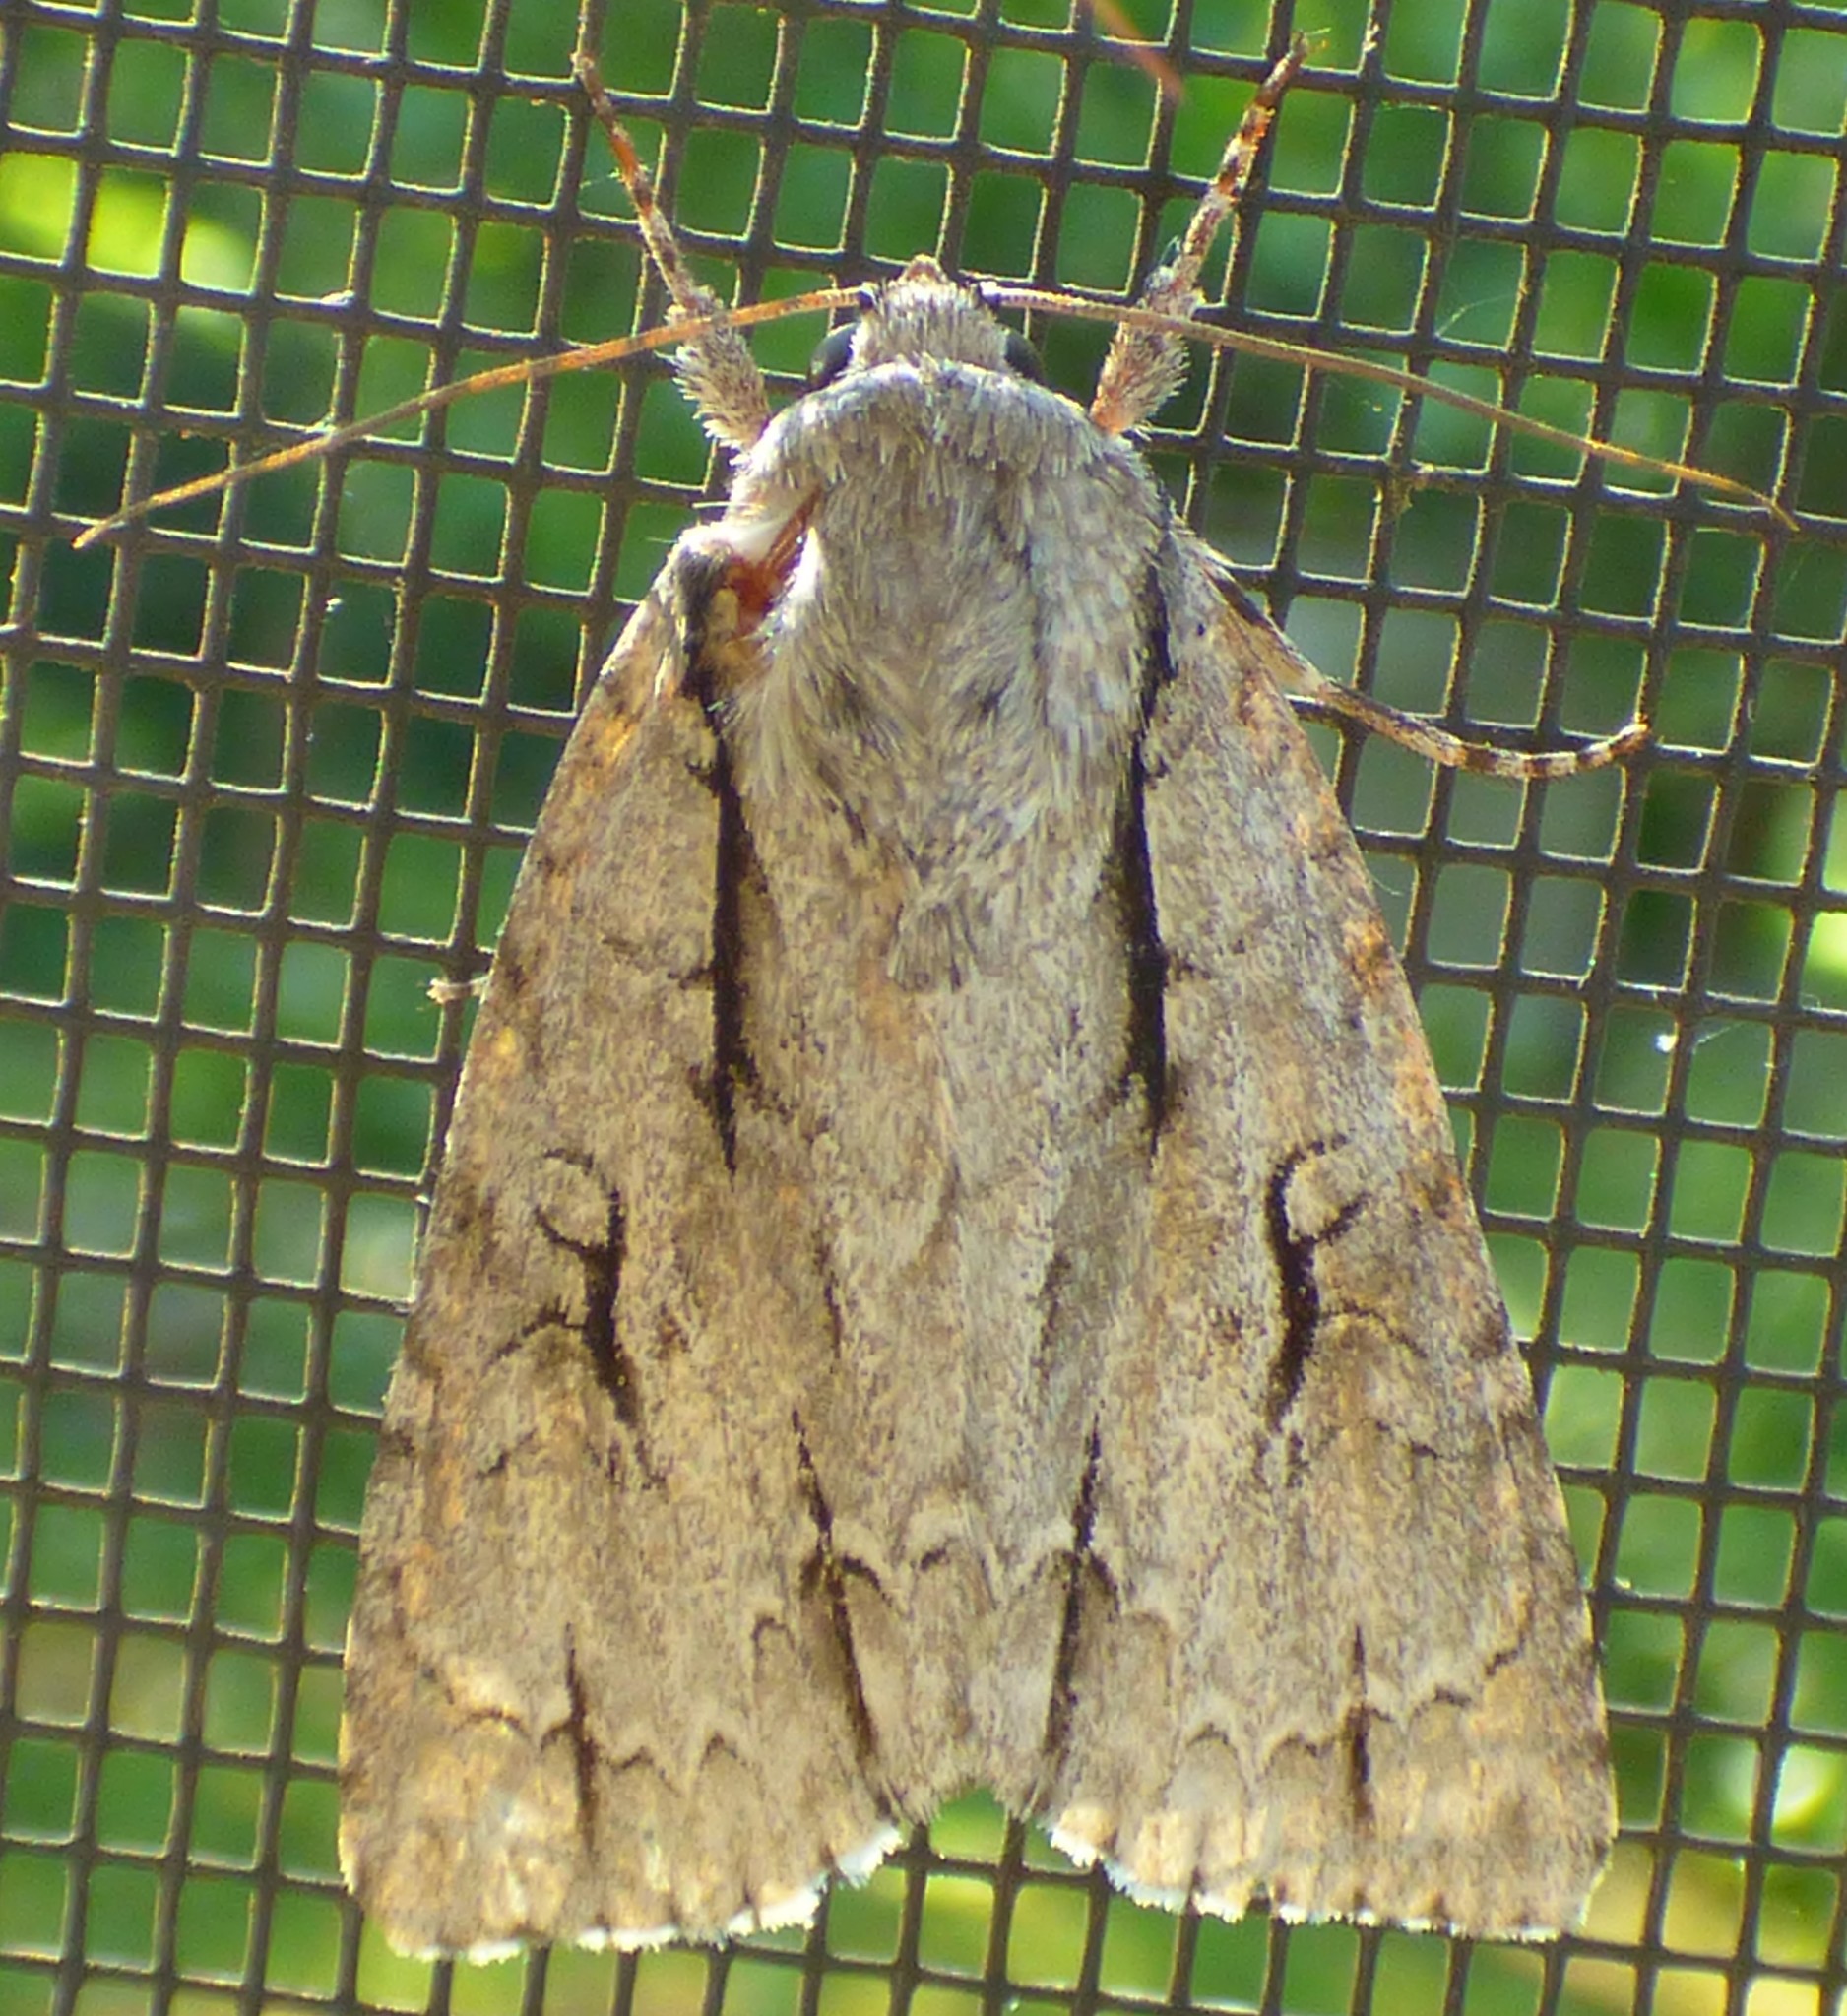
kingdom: Animalia
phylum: Arthropoda
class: Insecta
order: Lepidoptera
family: Noctuidae
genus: Acronicta
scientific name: Acronicta lobeliae
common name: Greater oak dagger
